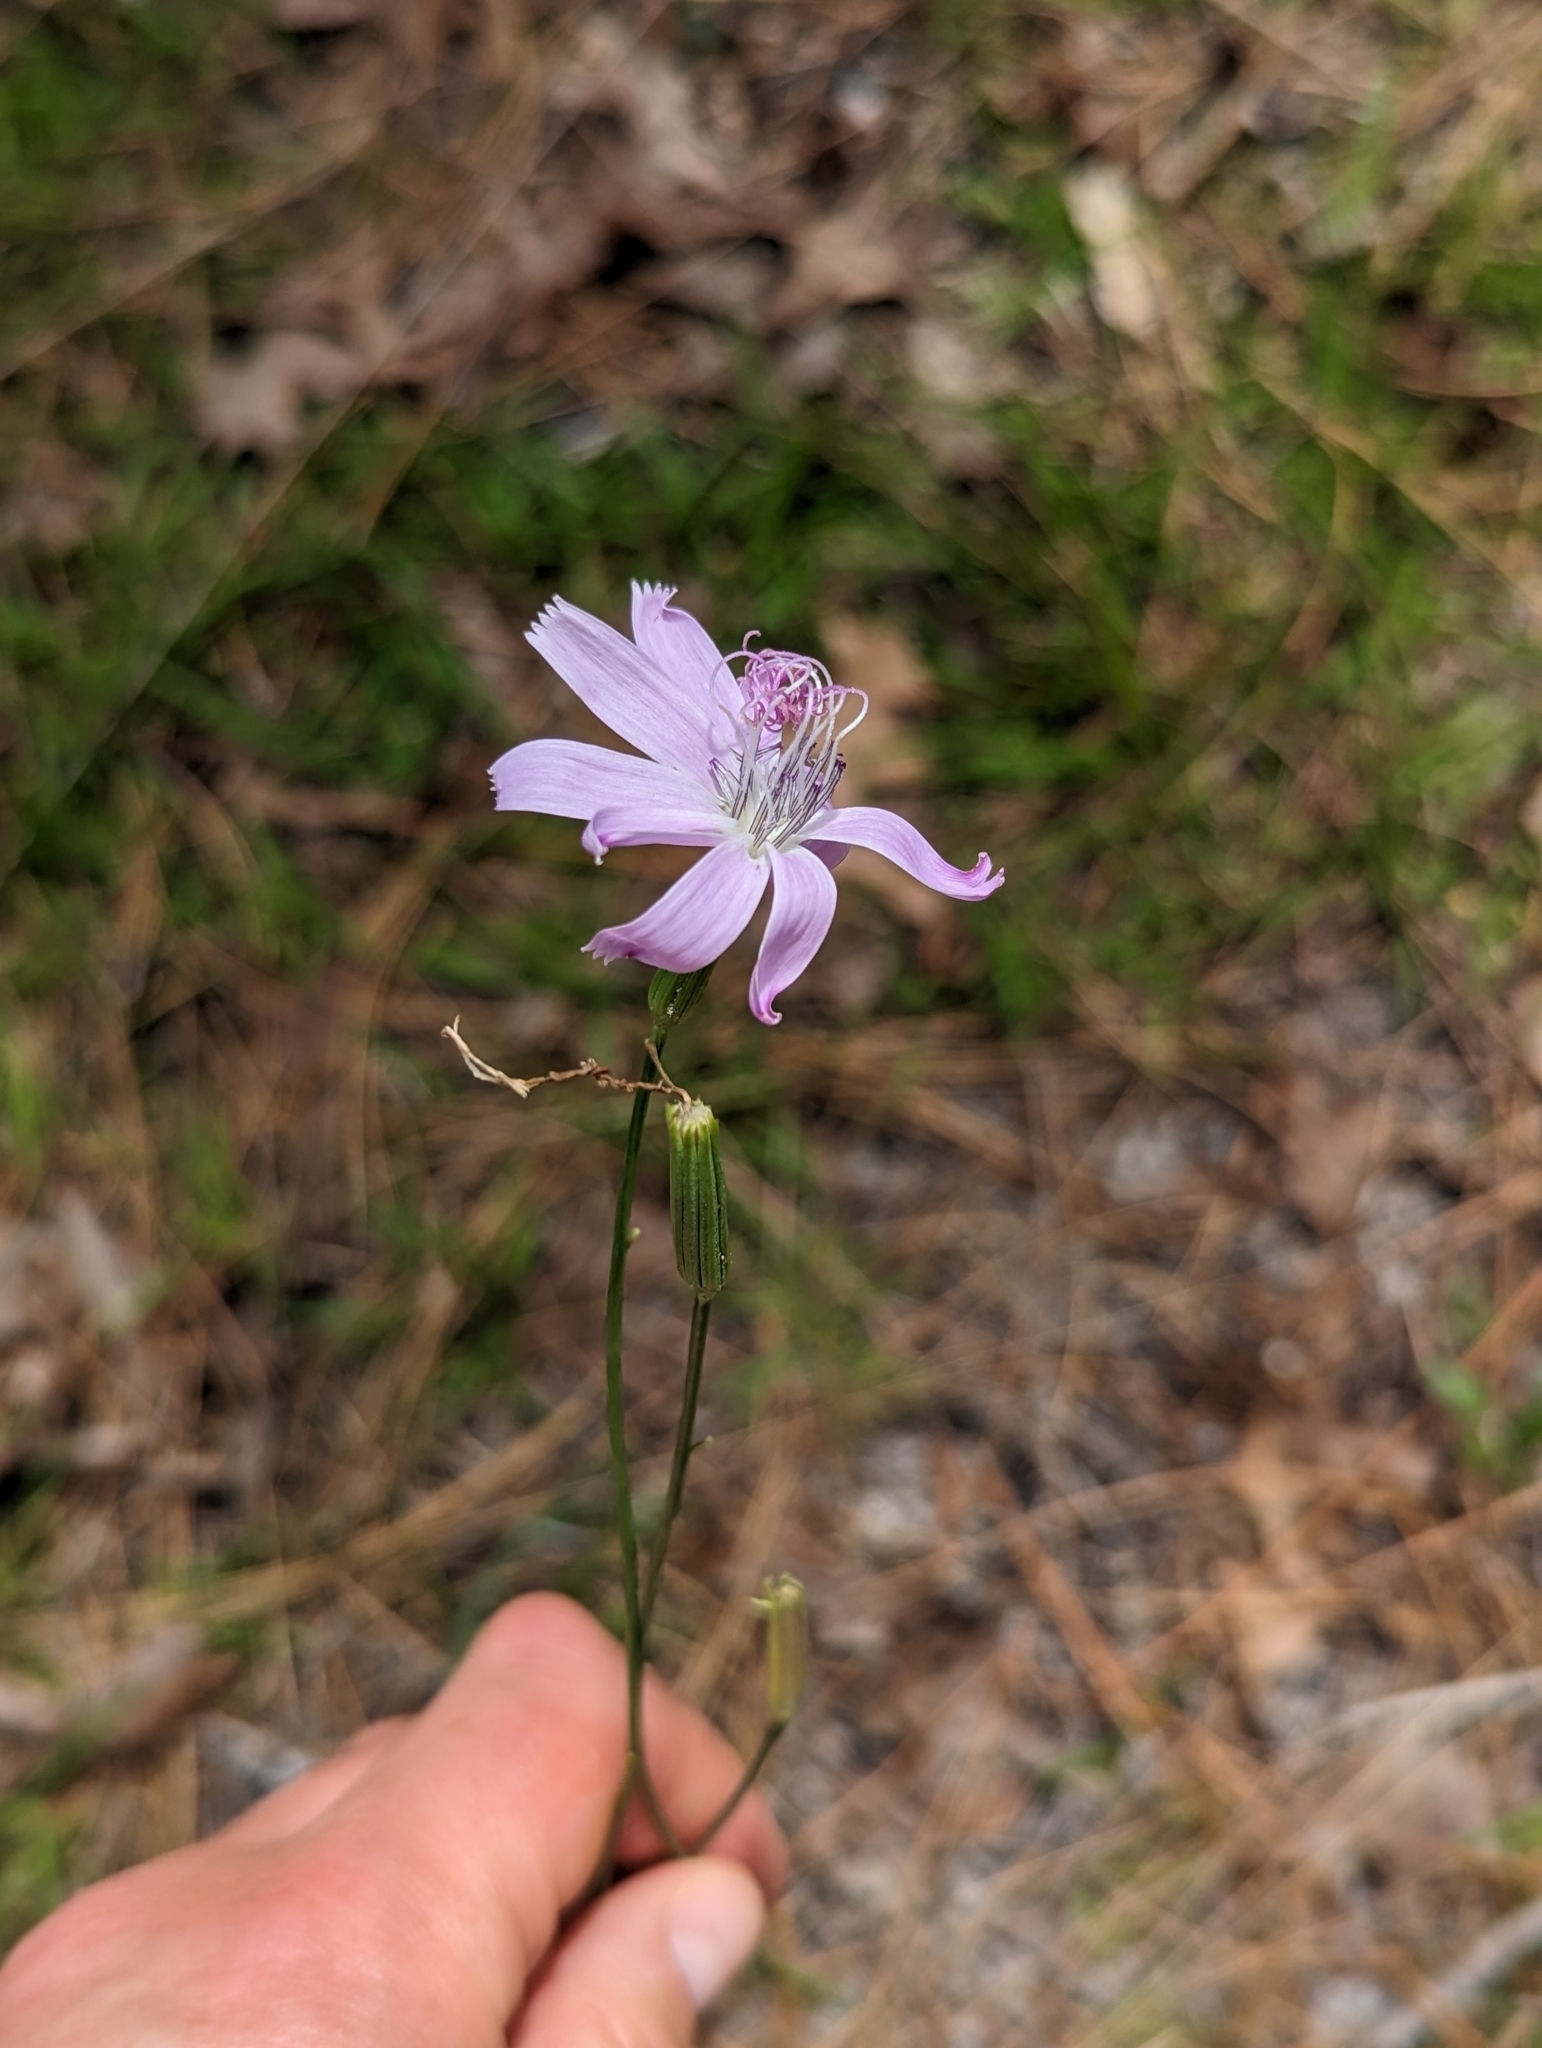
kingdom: Plantae
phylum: Tracheophyta
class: Magnoliopsida
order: Asterales
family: Asteraceae
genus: Lygodesmia
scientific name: Lygodesmia aphylla
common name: Rose-rush
